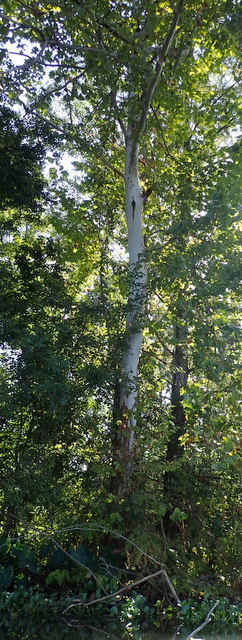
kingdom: Plantae
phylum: Tracheophyta
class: Magnoliopsida
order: Proteales
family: Platanaceae
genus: Platanus
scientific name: Platanus occidentalis
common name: American sycamore
